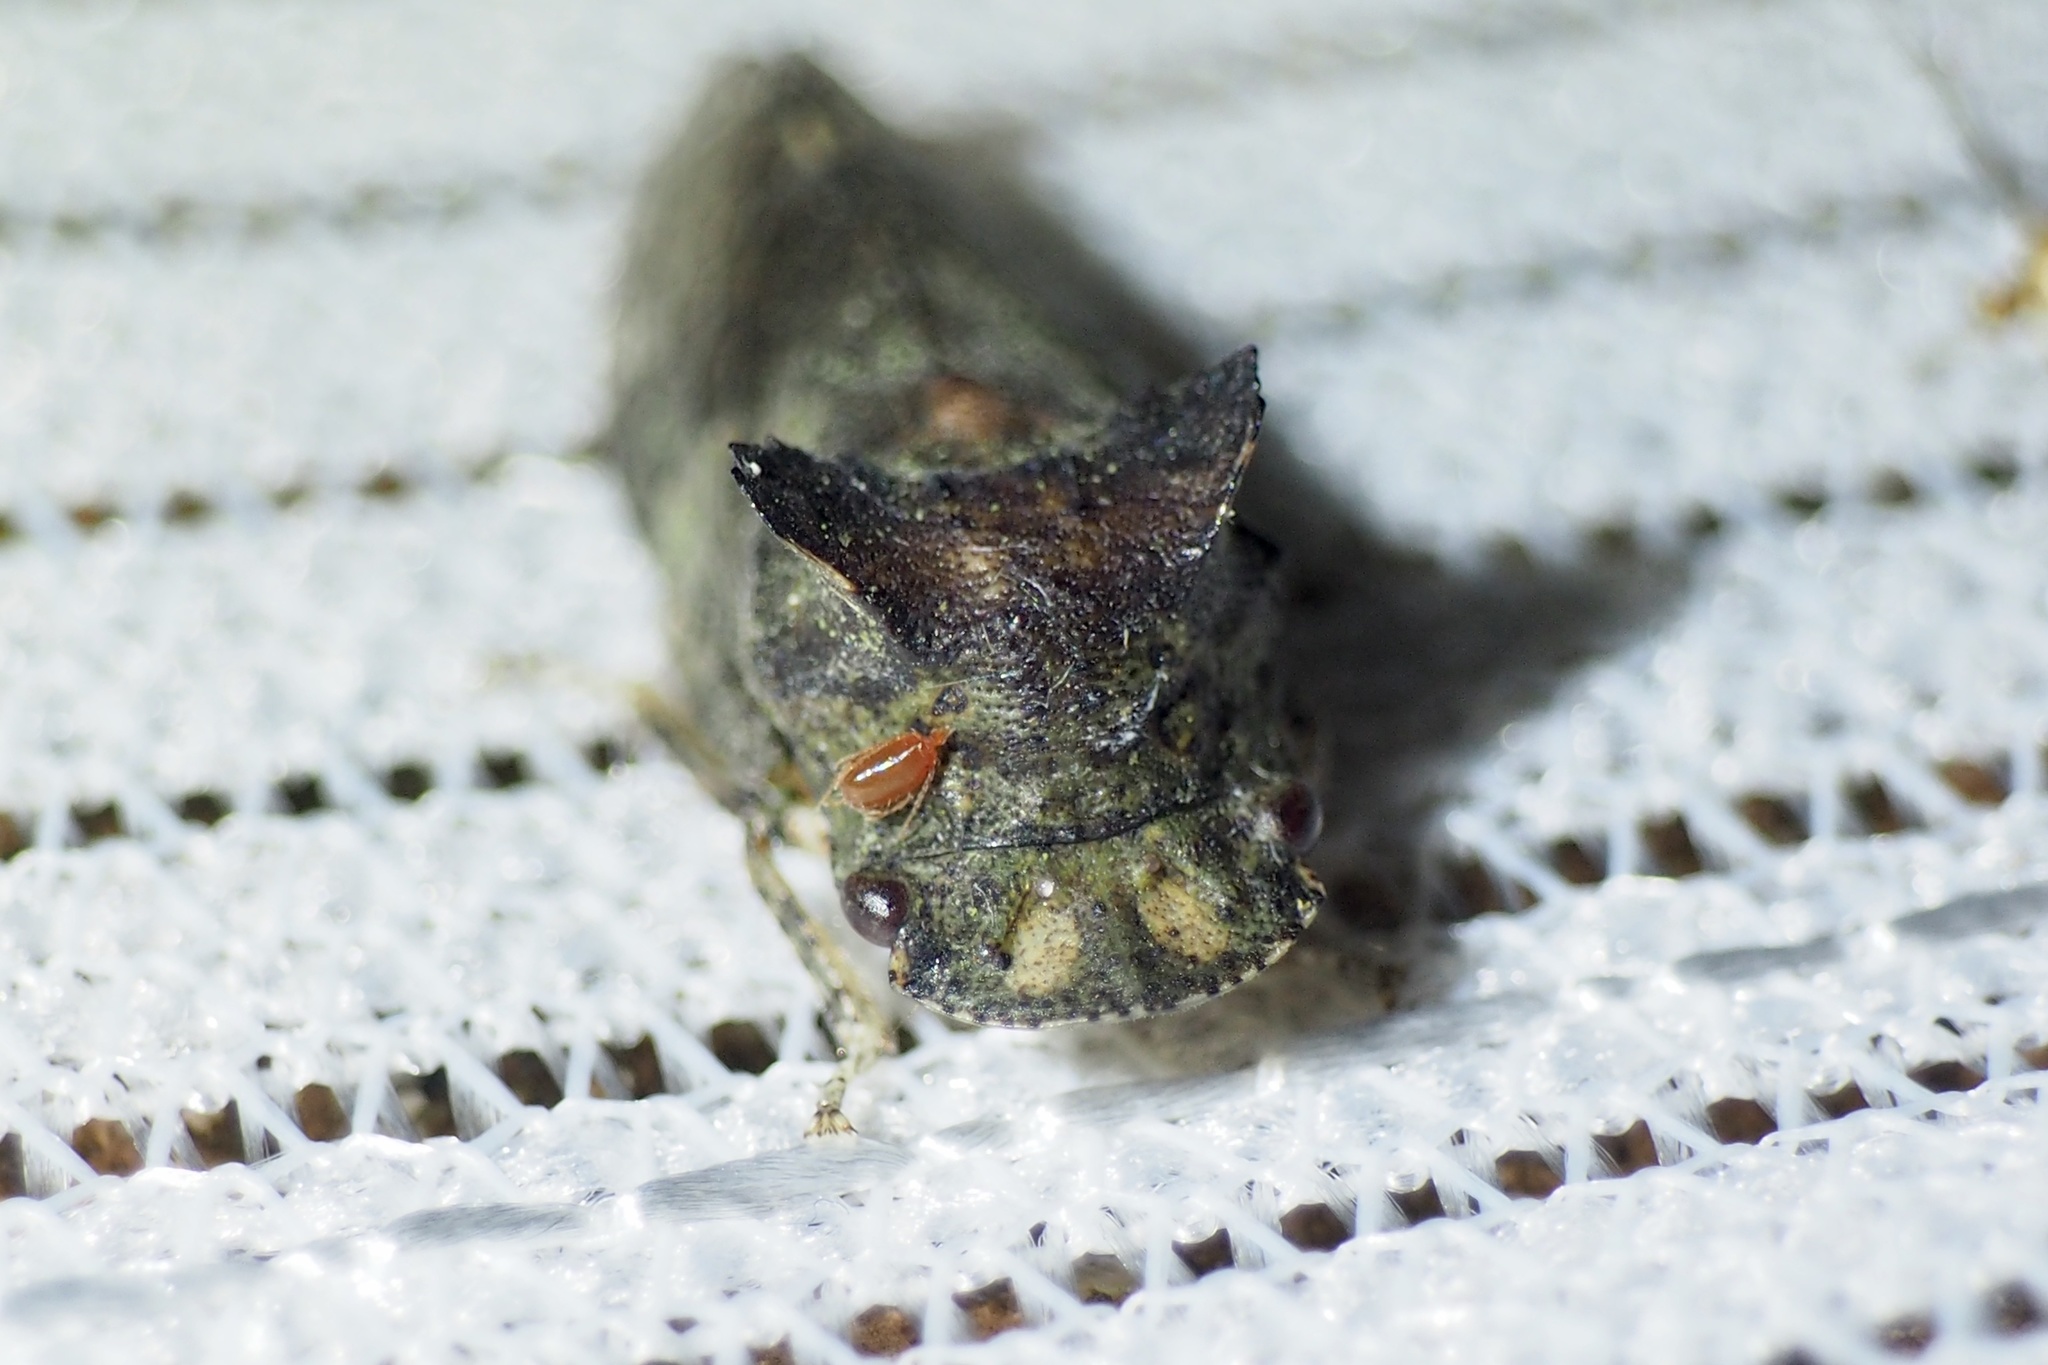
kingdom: Animalia
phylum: Arthropoda
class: Insecta
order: Hemiptera
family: Cicadellidae
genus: Ledra
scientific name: Ledra auditura
